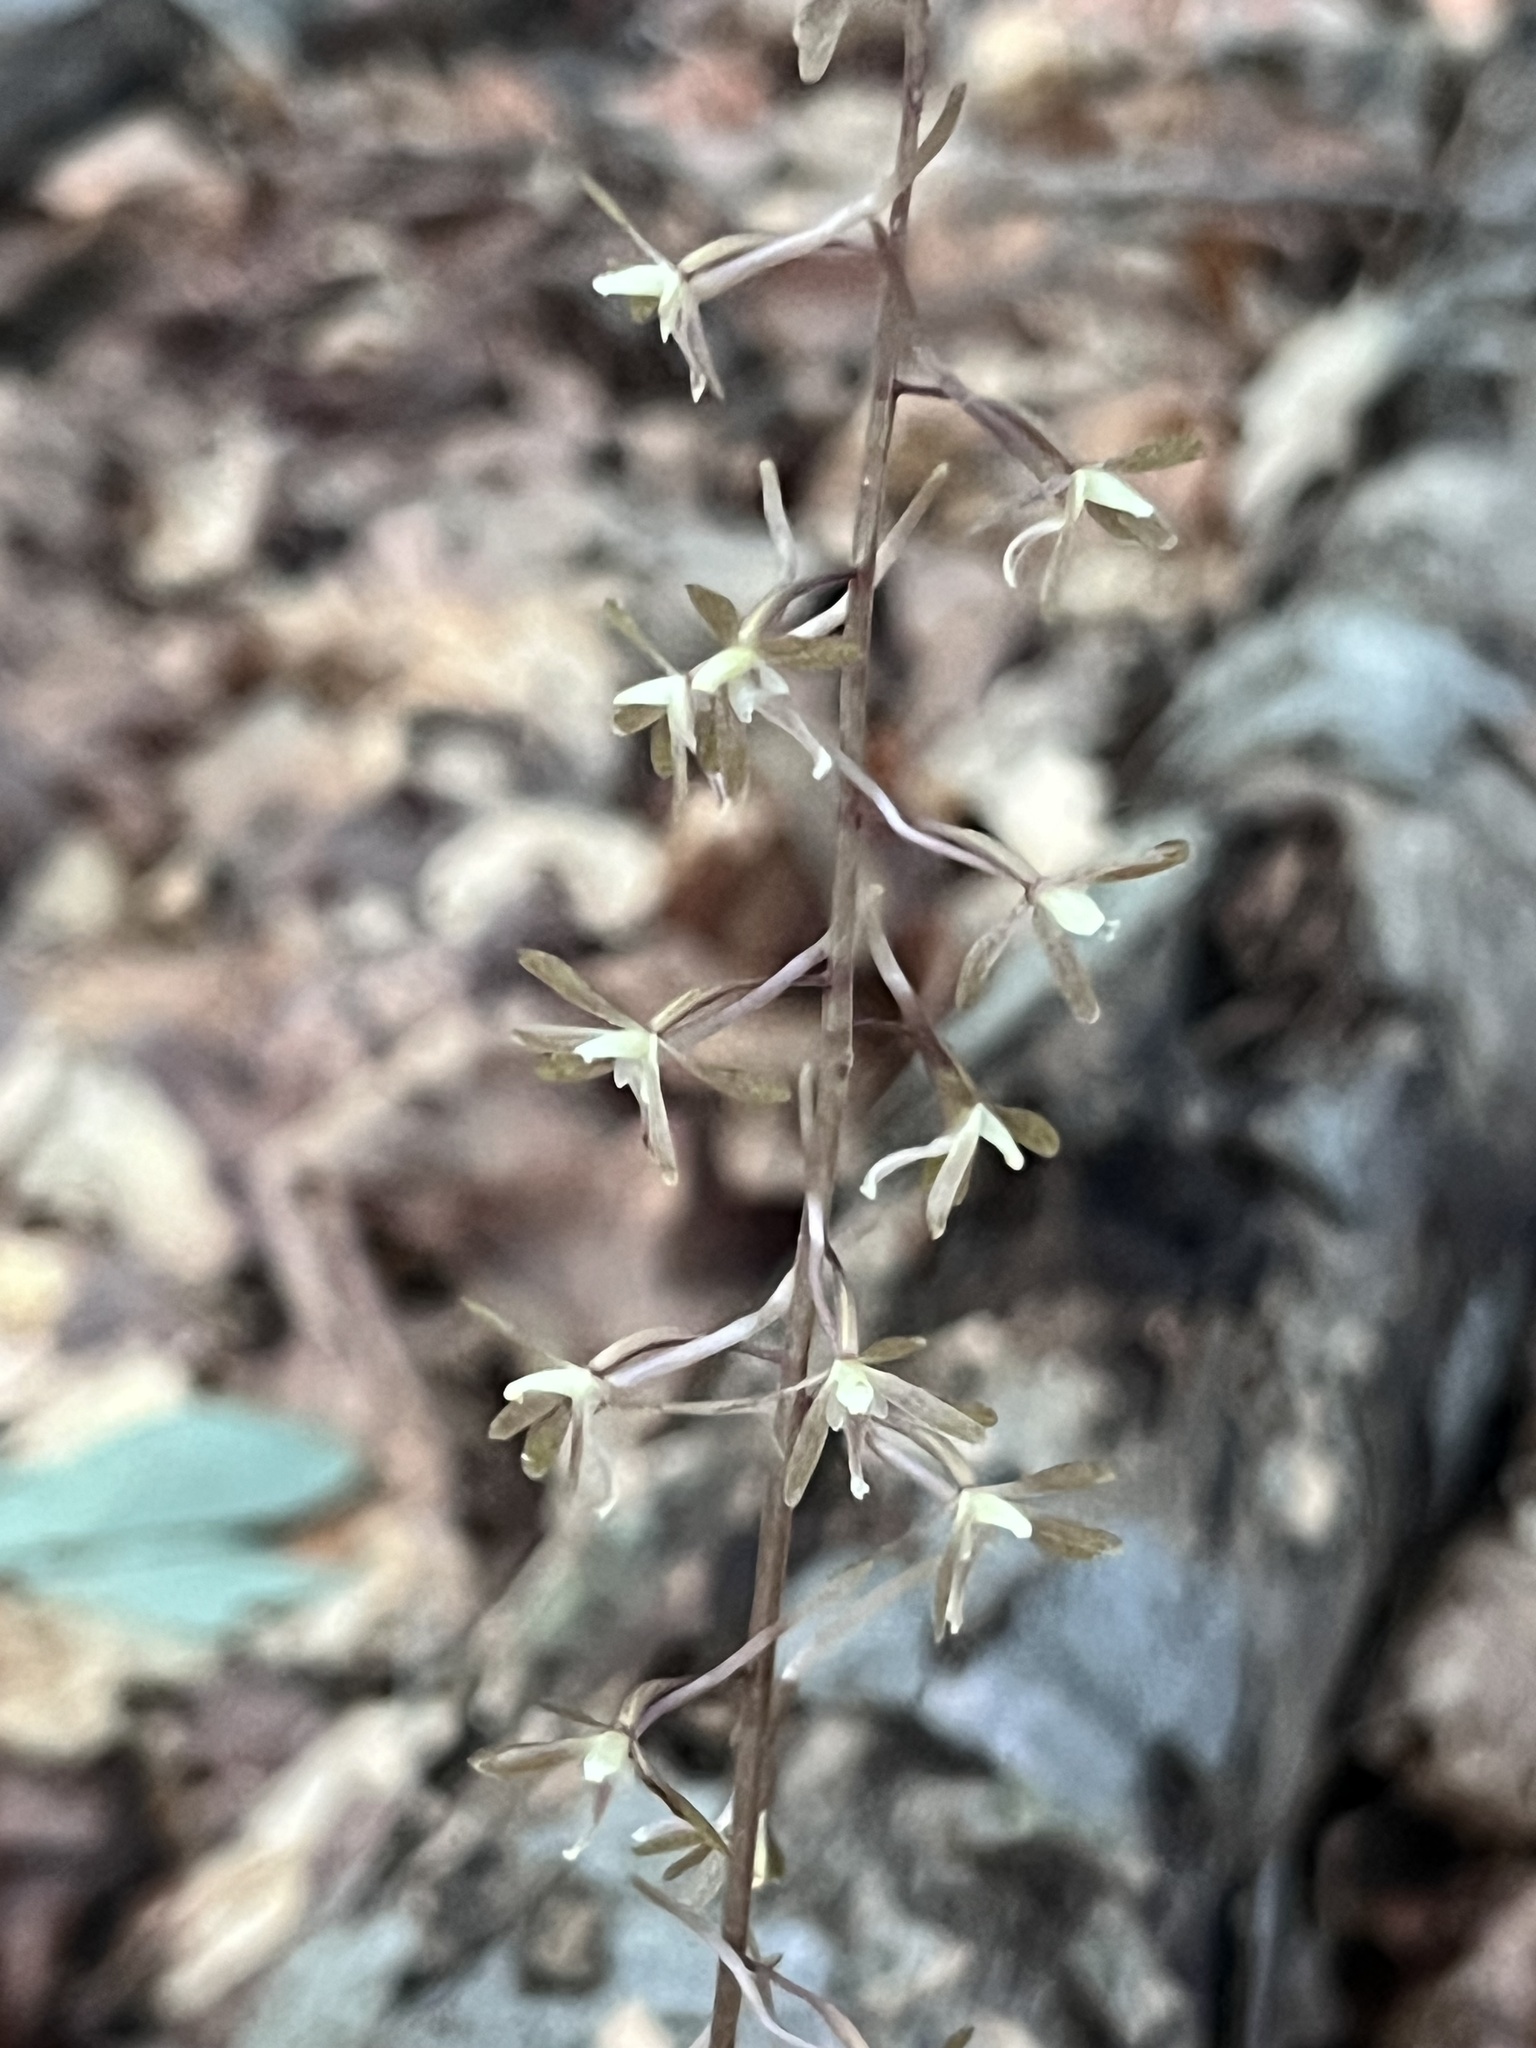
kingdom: Plantae
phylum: Tracheophyta
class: Liliopsida
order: Asparagales
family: Orchidaceae
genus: Tipularia
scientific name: Tipularia discolor
